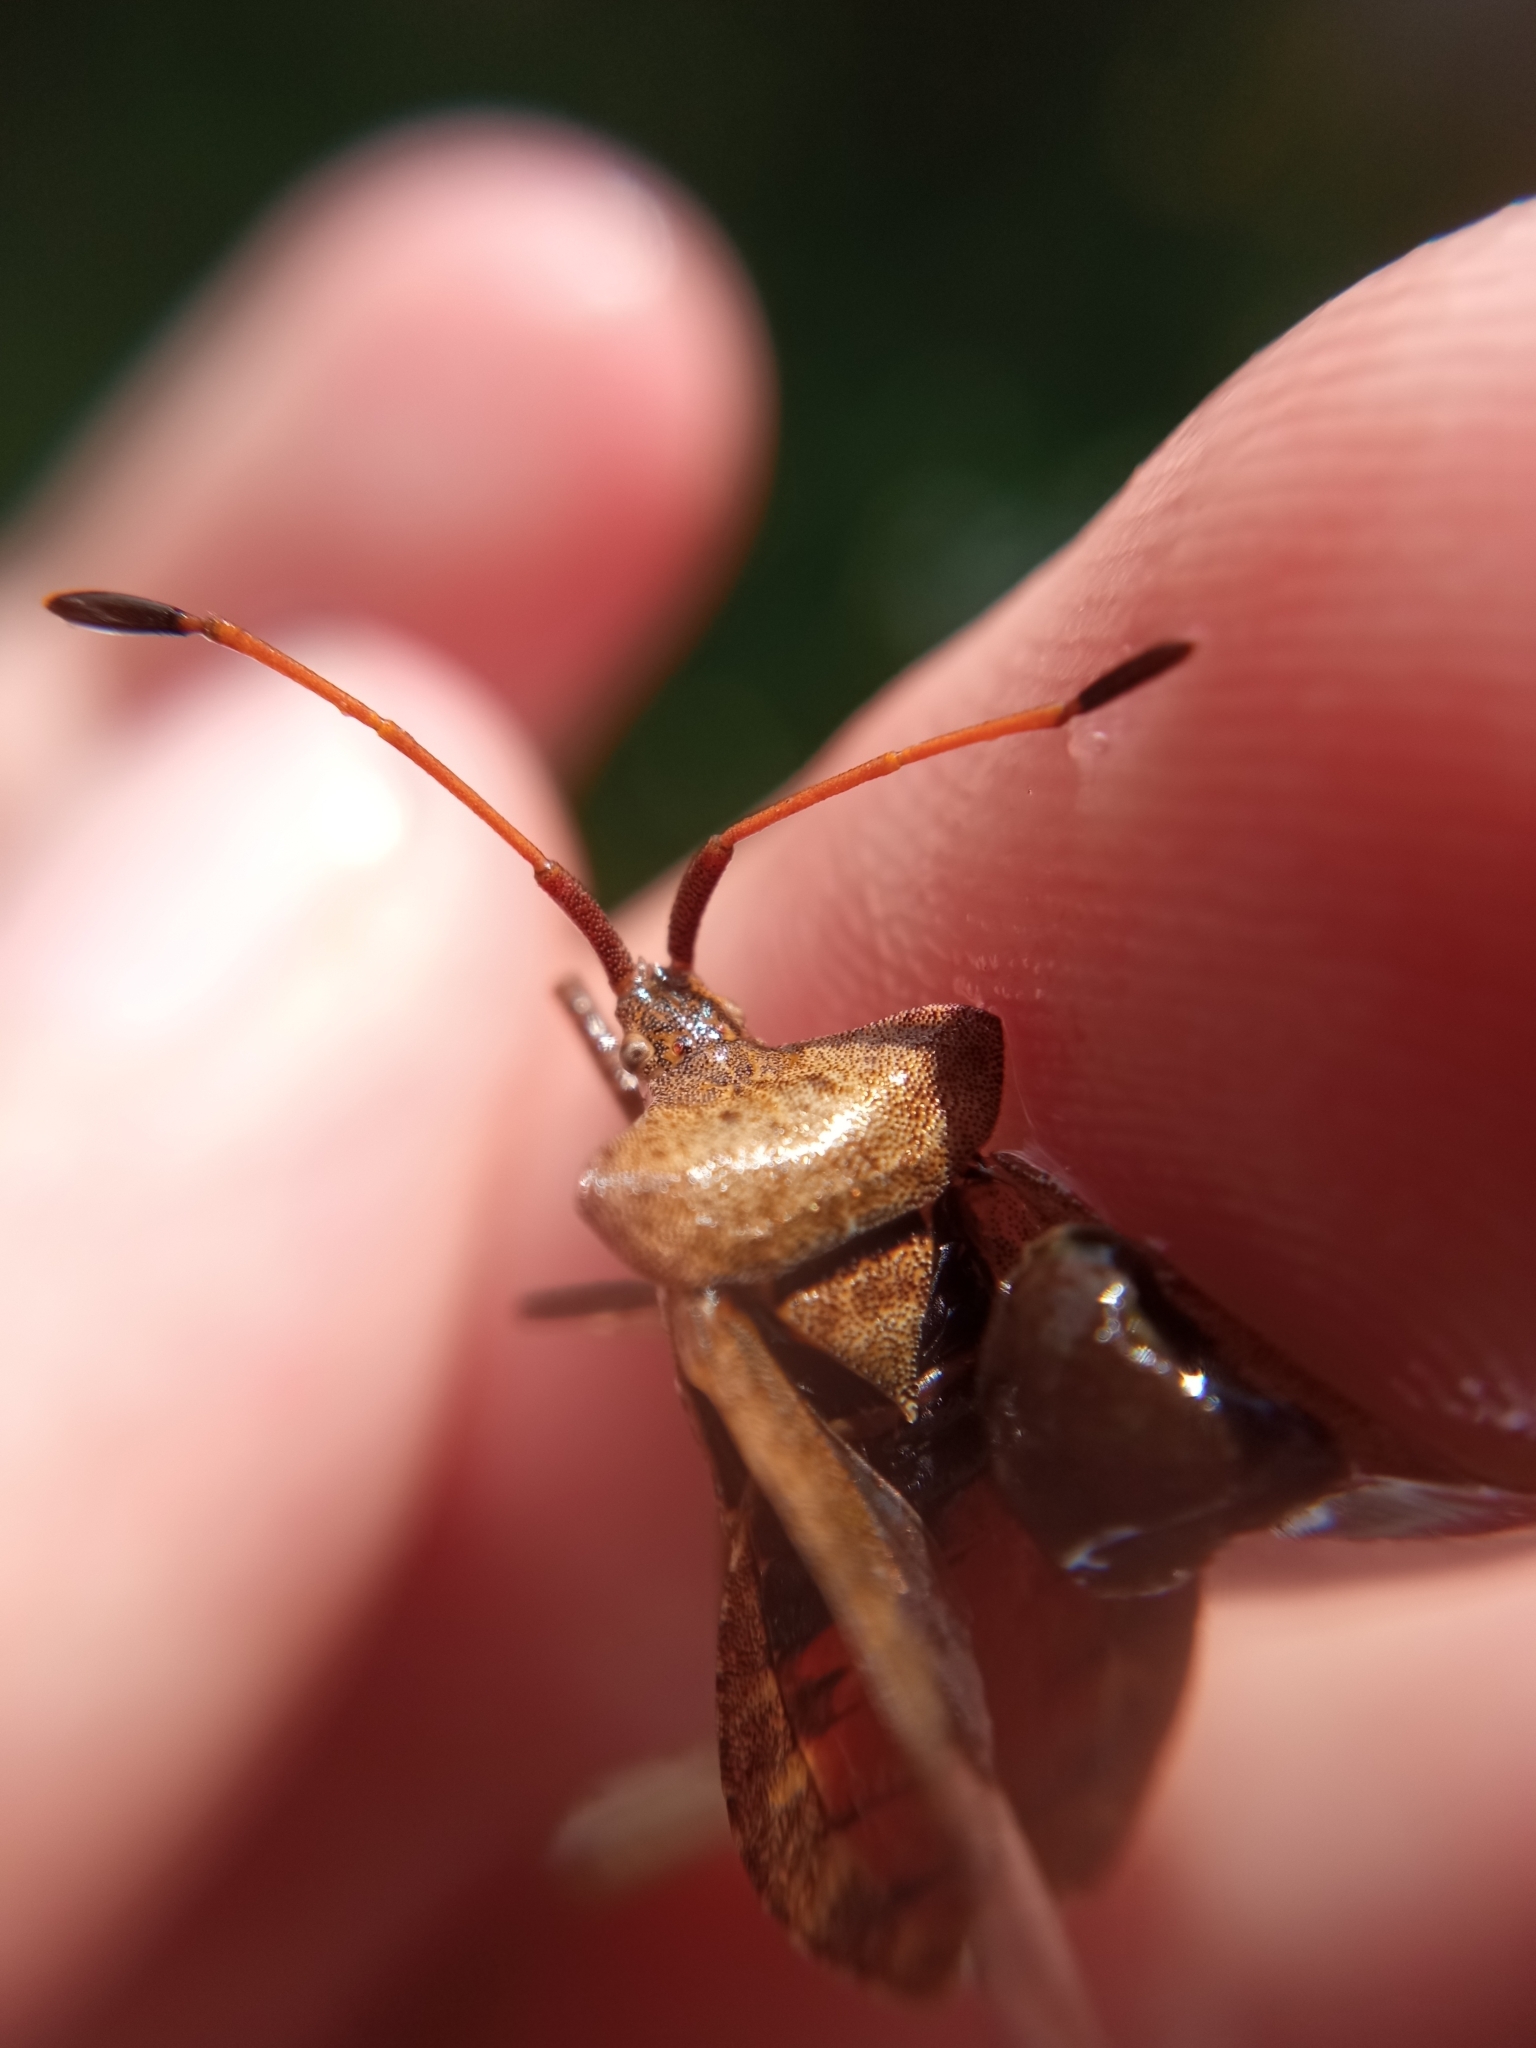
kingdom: Animalia
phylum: Arthropoda
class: Insecta
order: Hemiptera
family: Coreidae
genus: Coreus
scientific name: Coreus marginatus
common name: Dock bug
